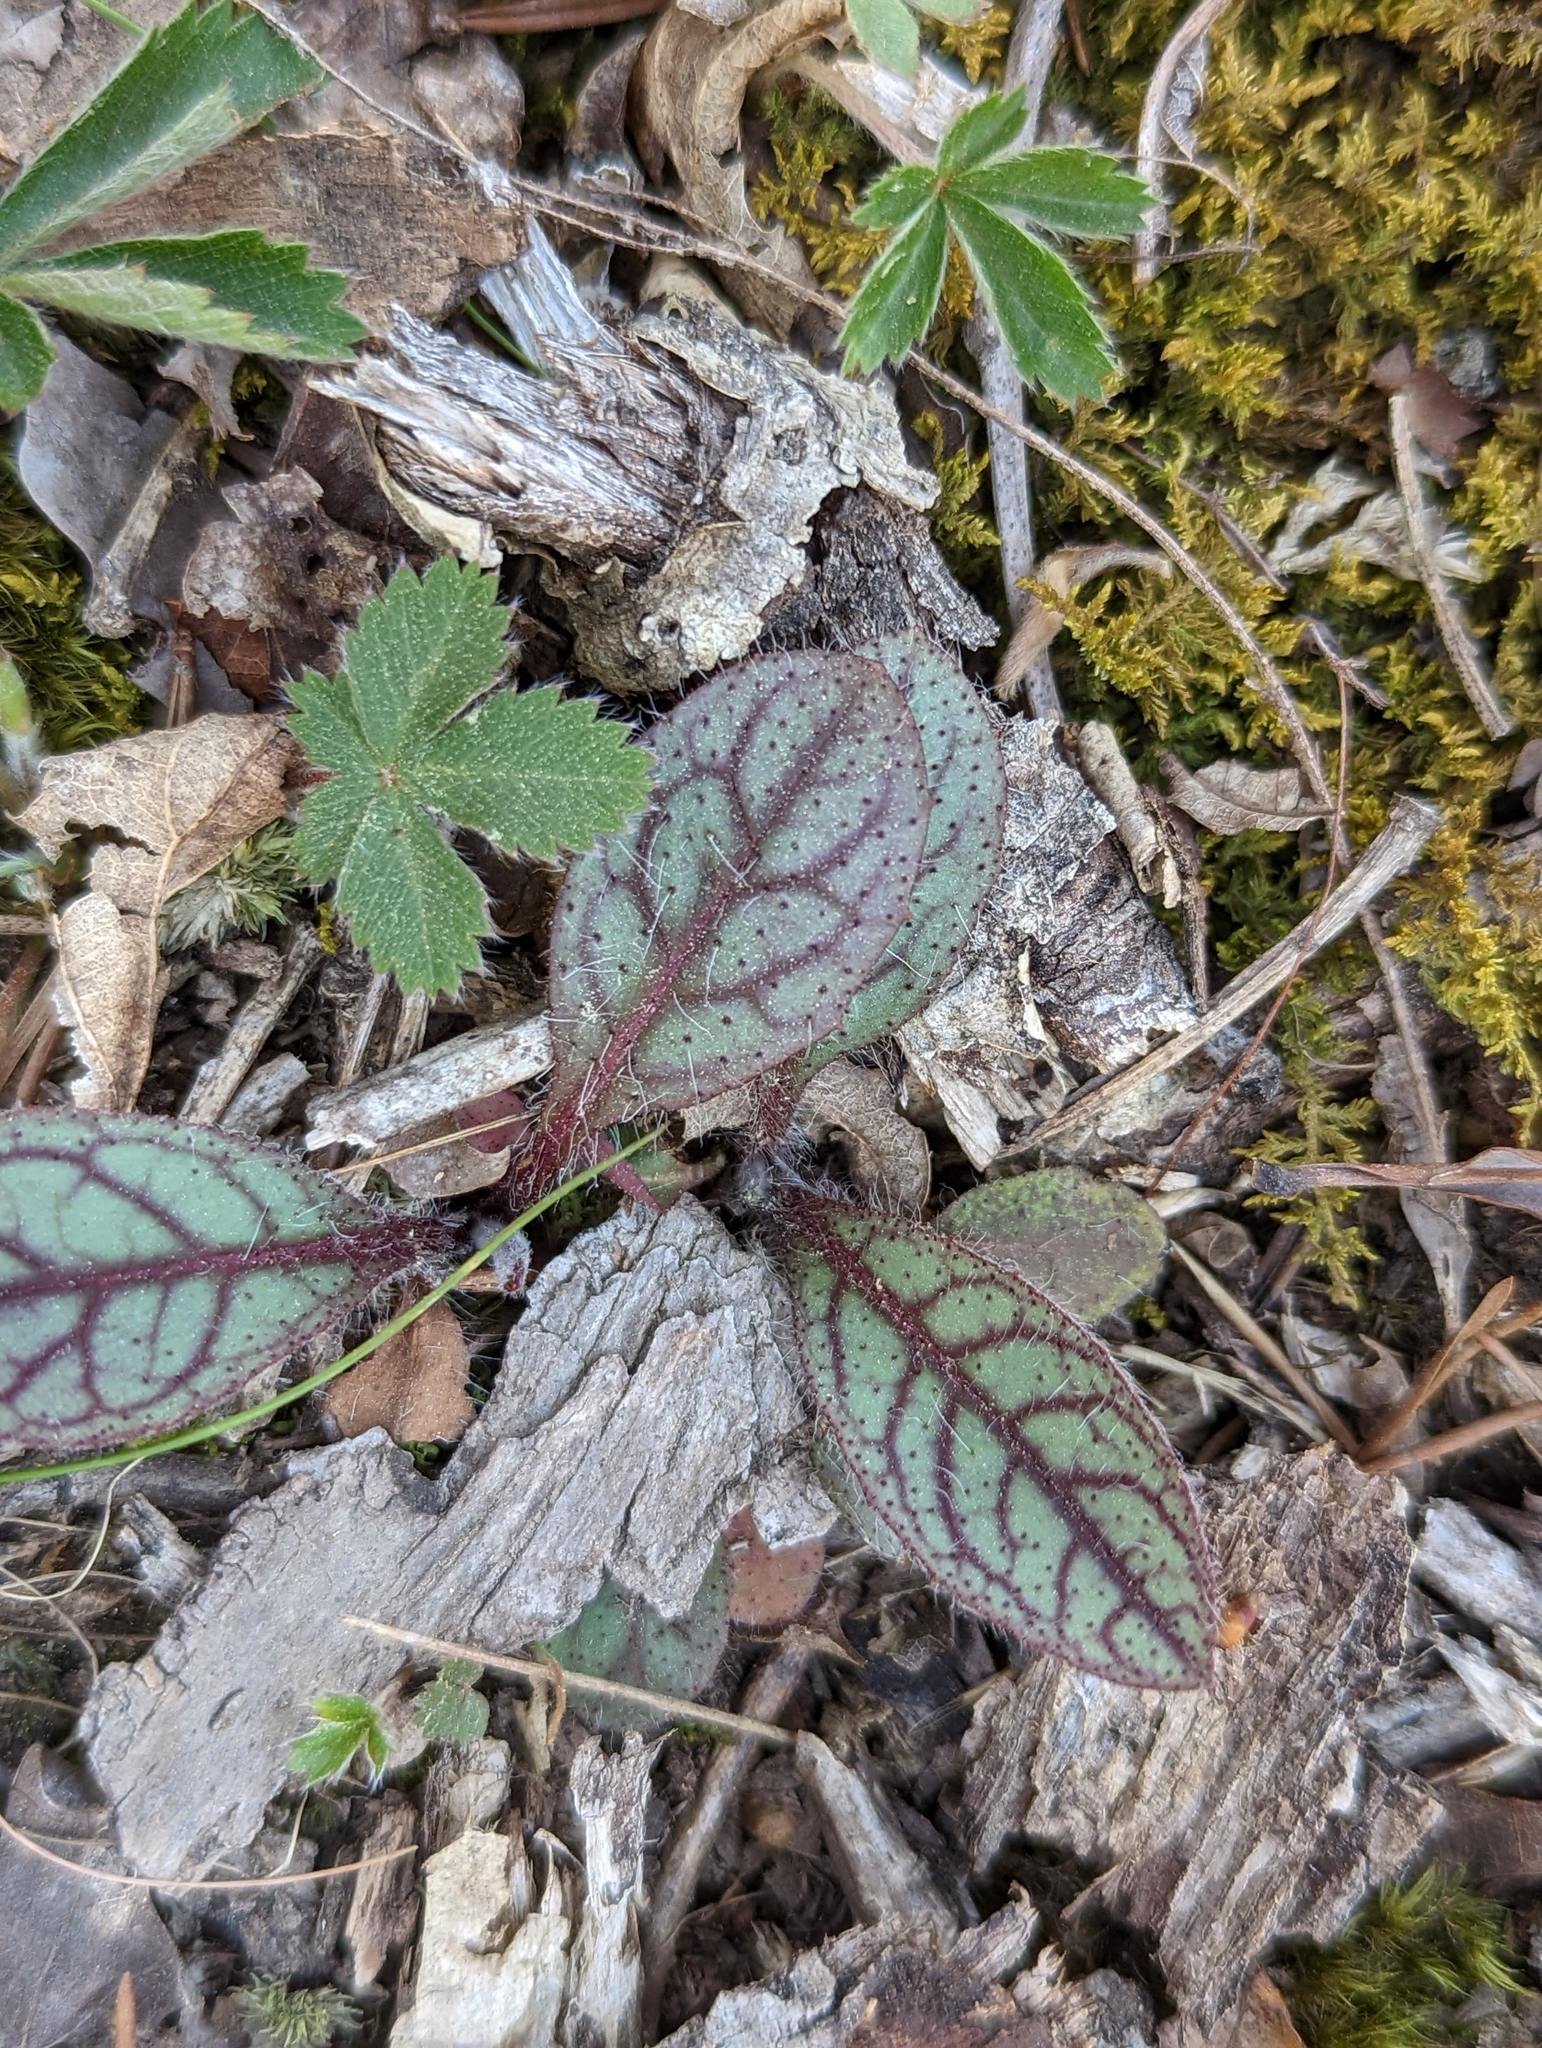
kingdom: Plantae
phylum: Tracheophyta
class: Magnoliopsida
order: Asterales
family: Asteraceae
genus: Hieracium
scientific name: Hieracium venosum
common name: Rattlesnake hawkweed
